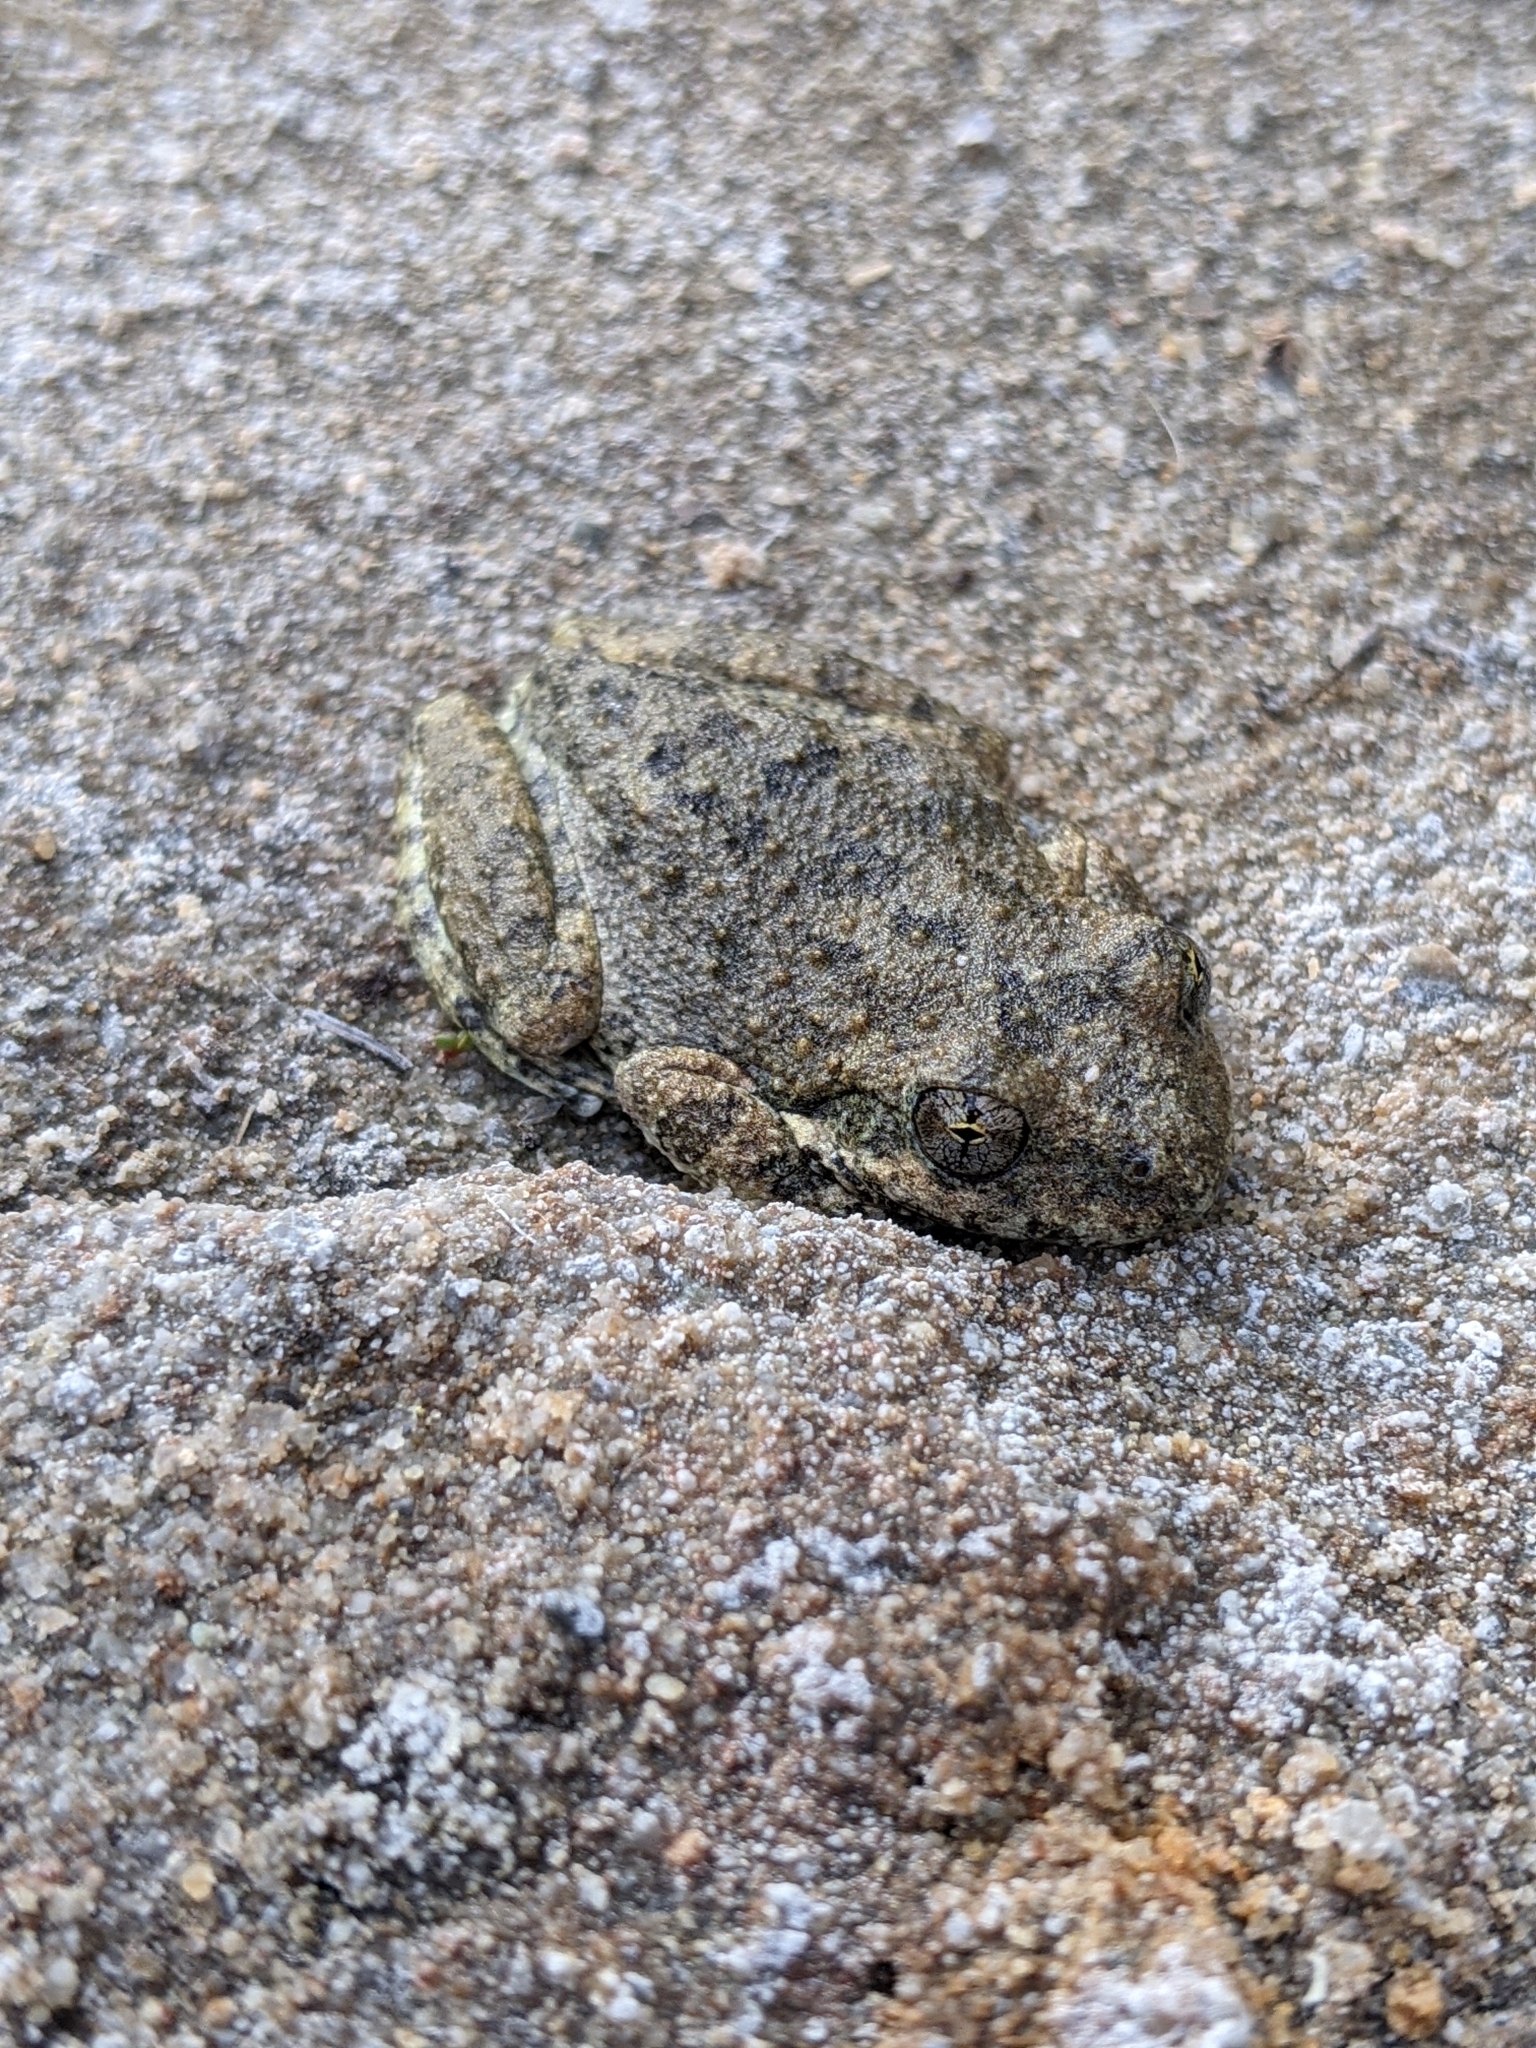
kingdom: Animalia
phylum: Chordata
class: Amphibia
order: Anura
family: Hylidae
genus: Pseudacris
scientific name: Pseudacris cadaverina
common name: California chorus frog
